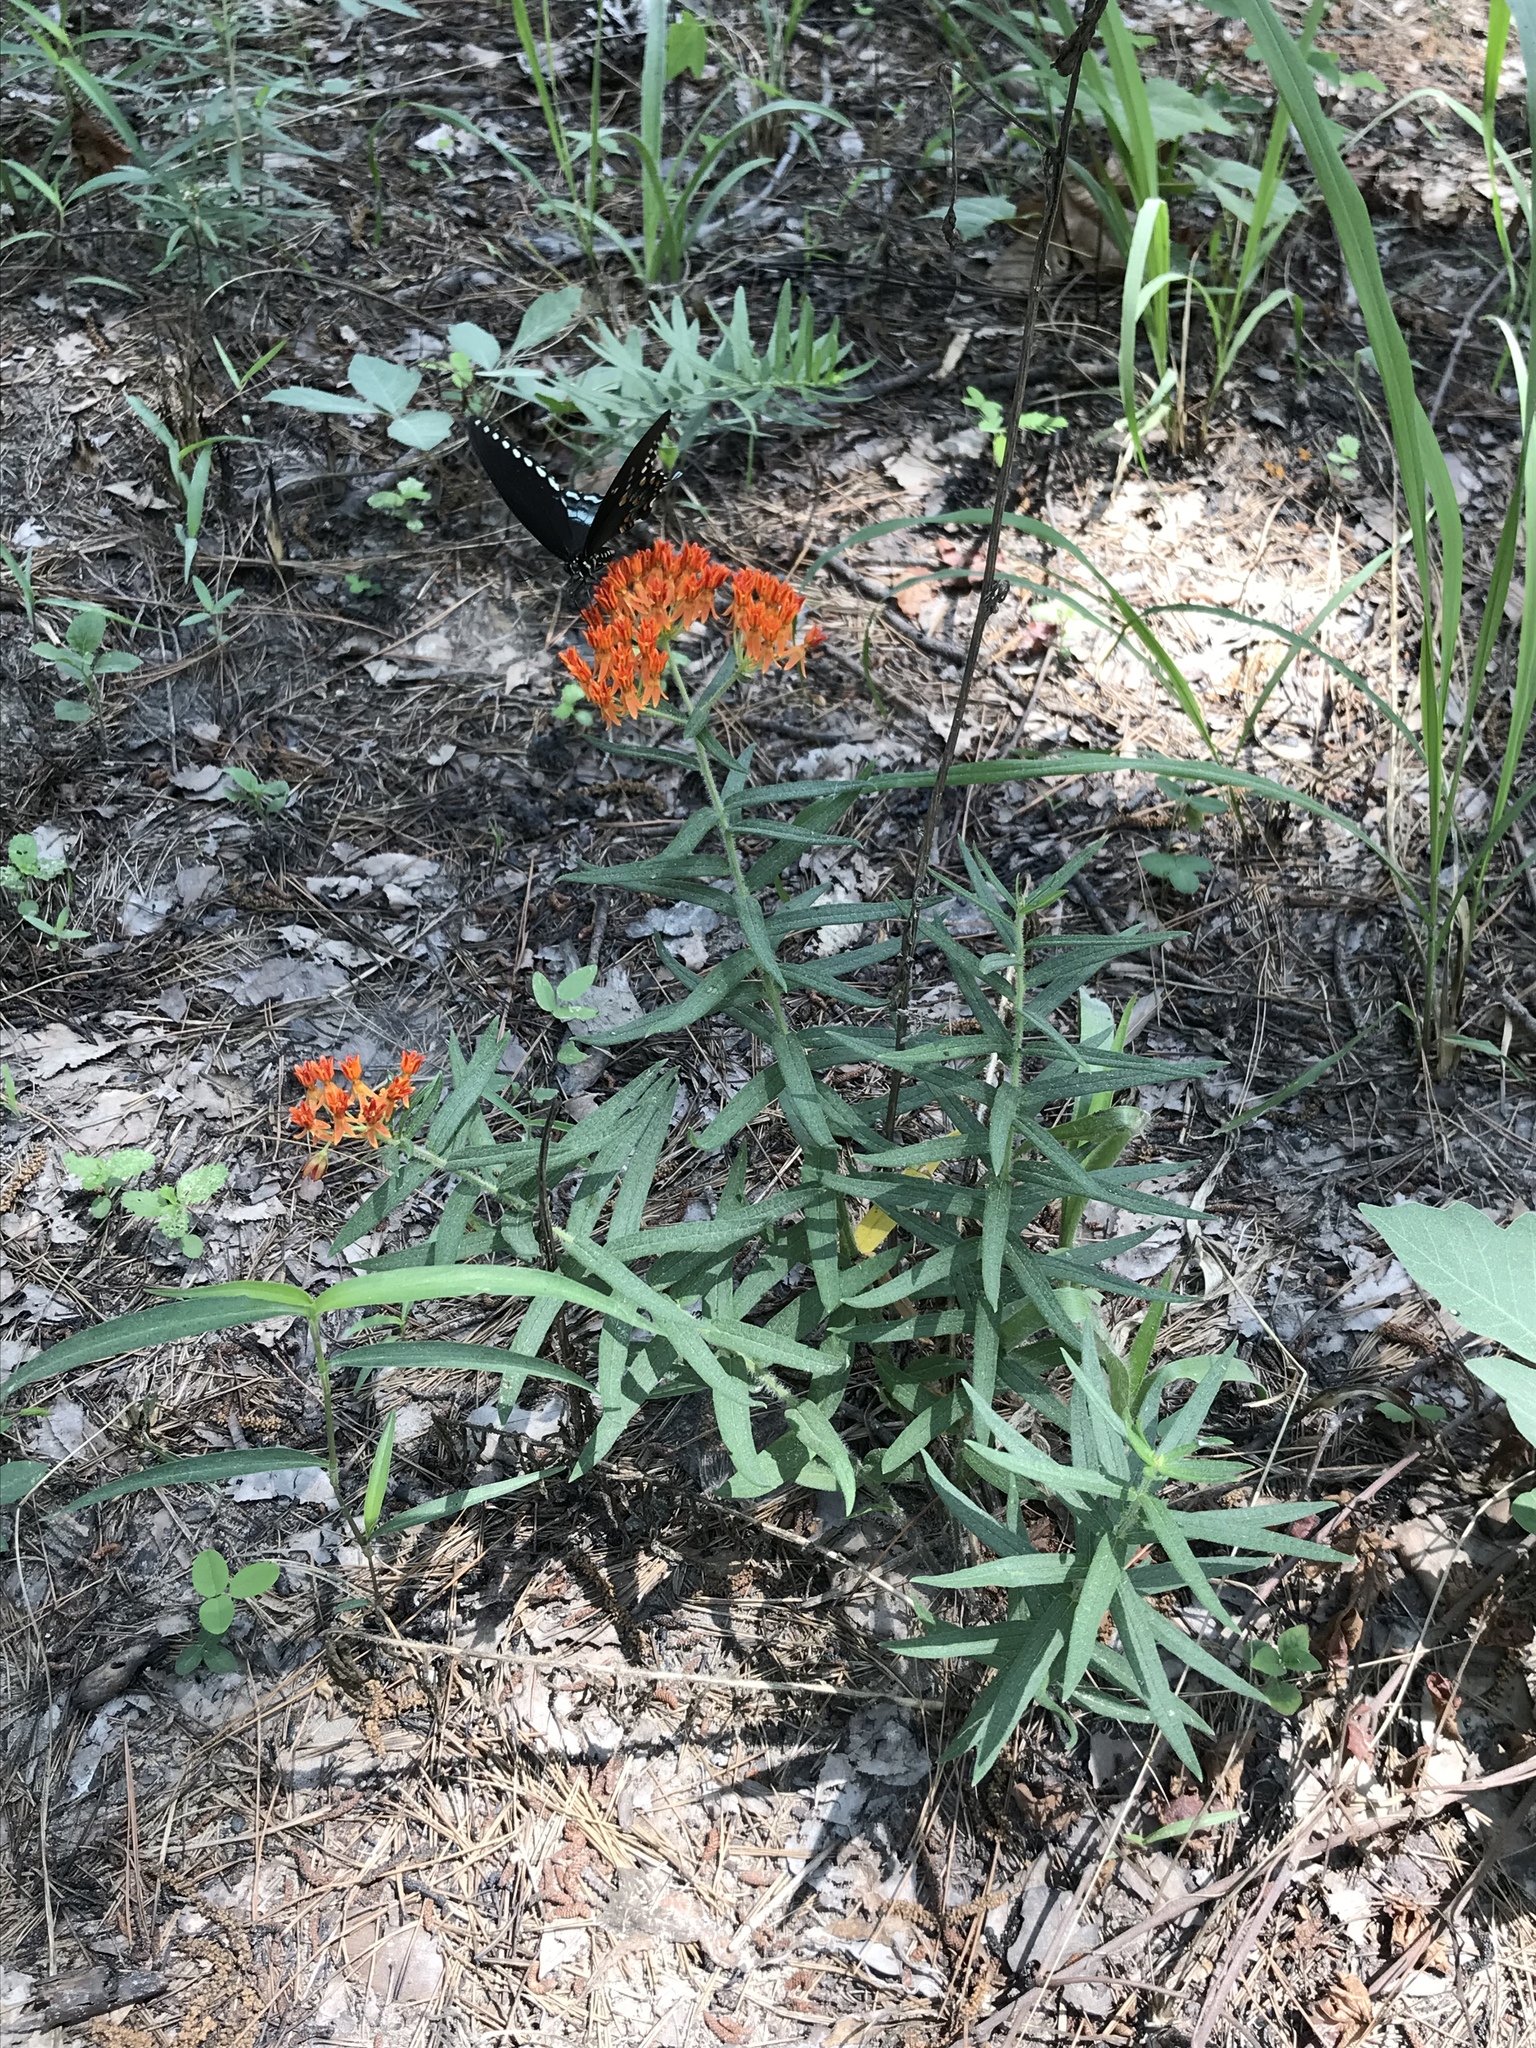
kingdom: Plantae
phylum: Tracheophyta
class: Magnoliopsida
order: Gentianales
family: Apocynaceae
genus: Asclepias
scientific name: Asclepias tuberosa
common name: Butterfly milkweed
